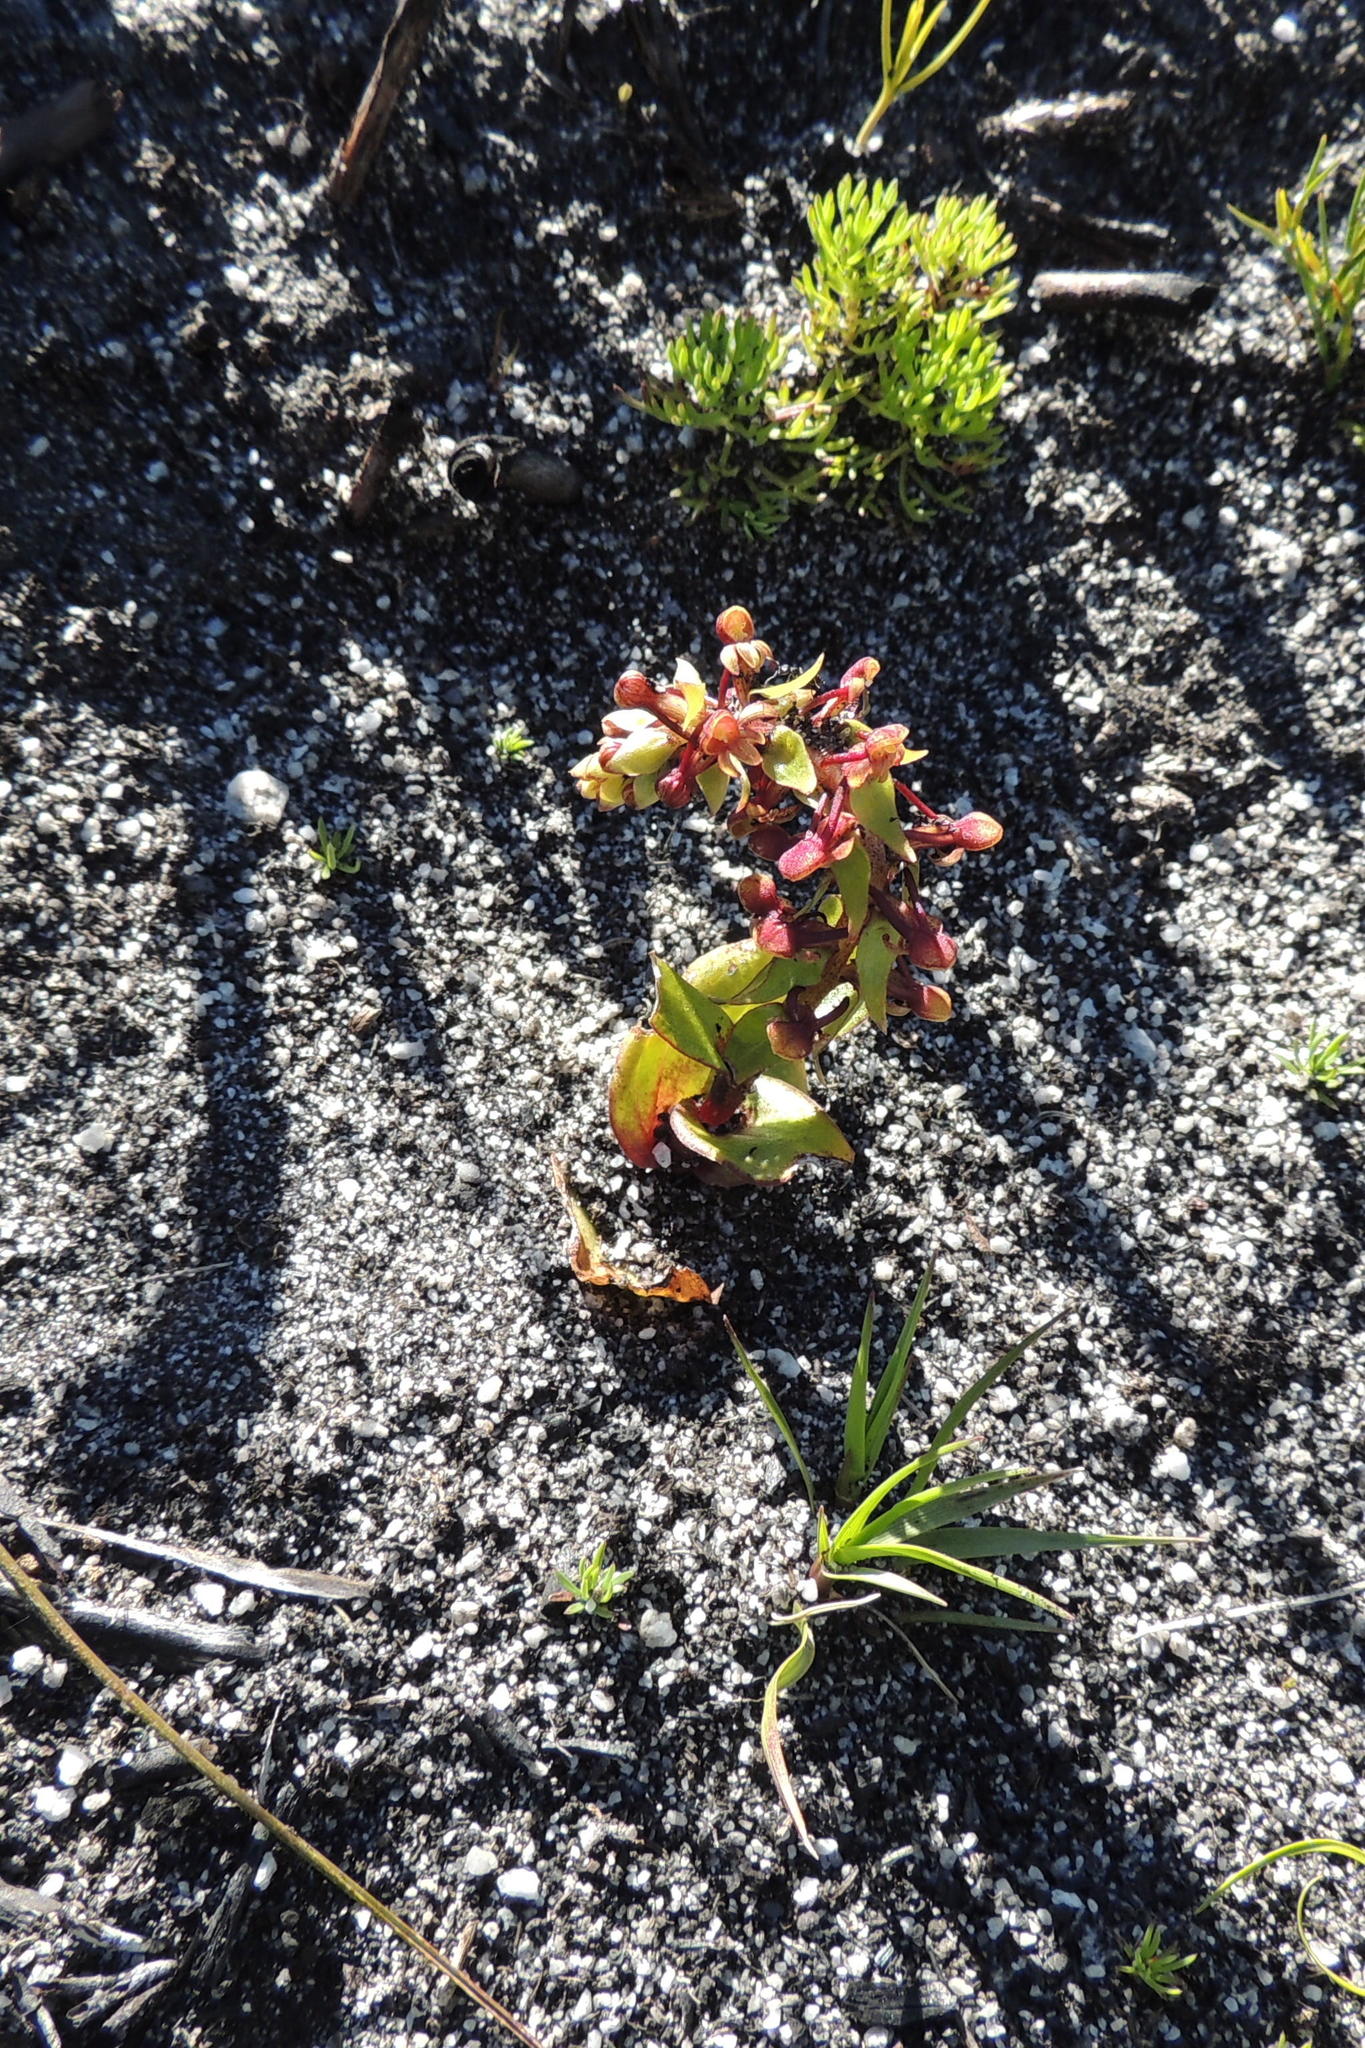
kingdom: Plantae
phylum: Tracheophyta
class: Liliopsida
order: Asparagales
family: Orchidaceae
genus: Satyrium
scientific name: Satyrium pygmaeum
